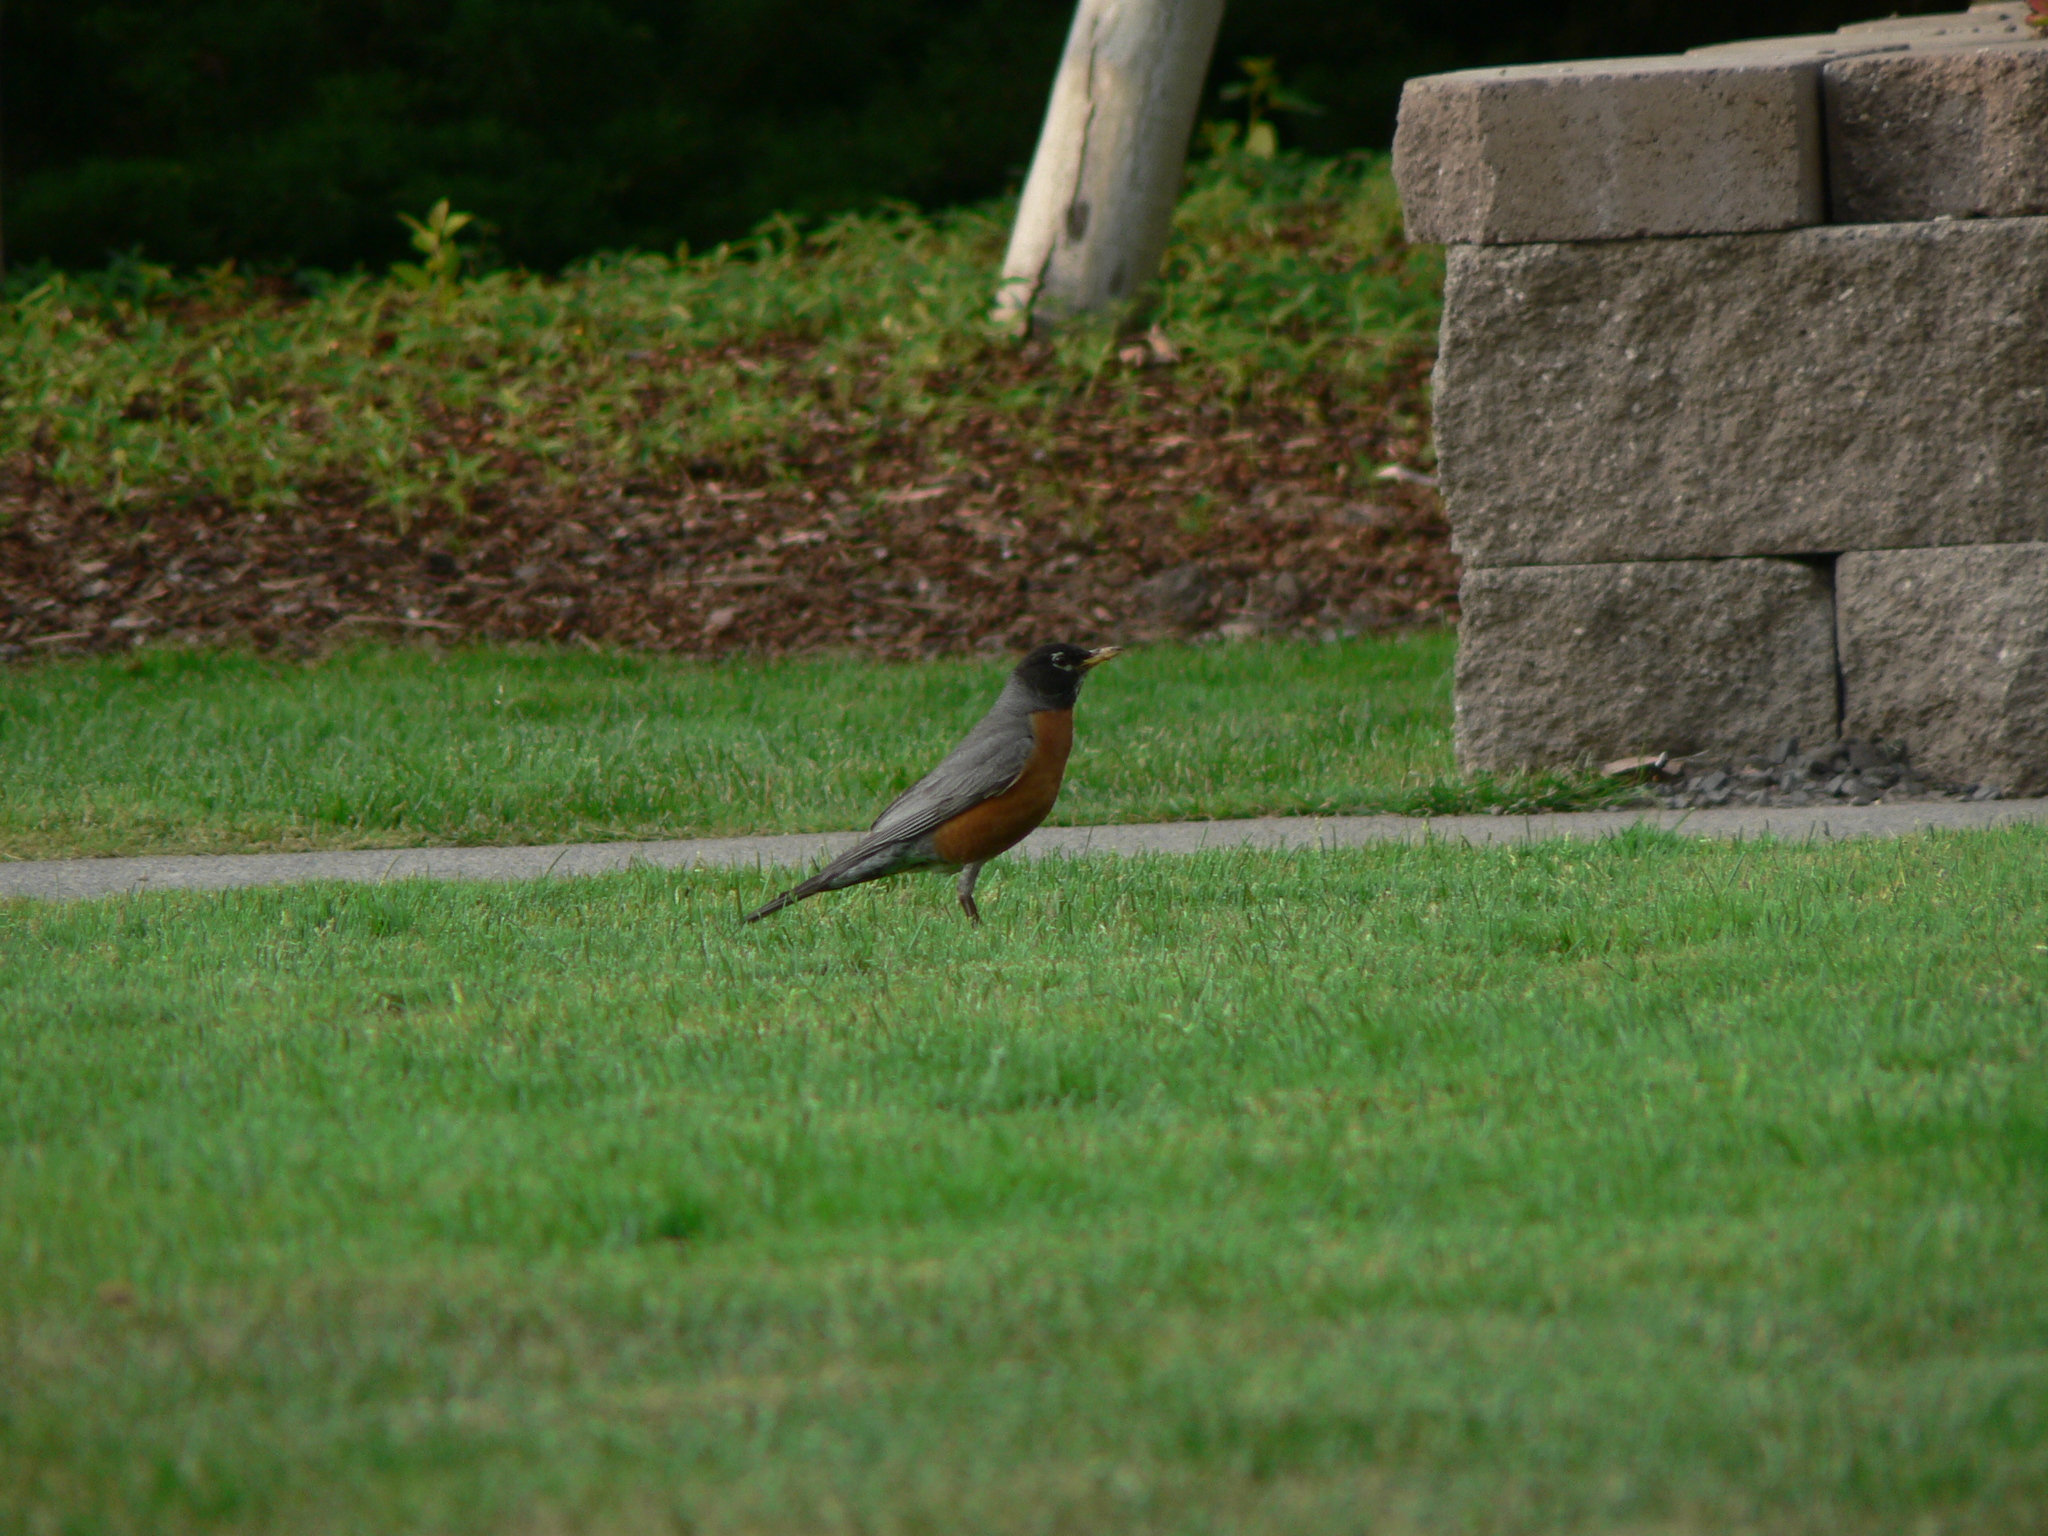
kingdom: Animalia
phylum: Chordata
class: Aves
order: Passeriformes
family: Turdidae
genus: Turdus
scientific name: Turdus migratorius
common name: American robin
